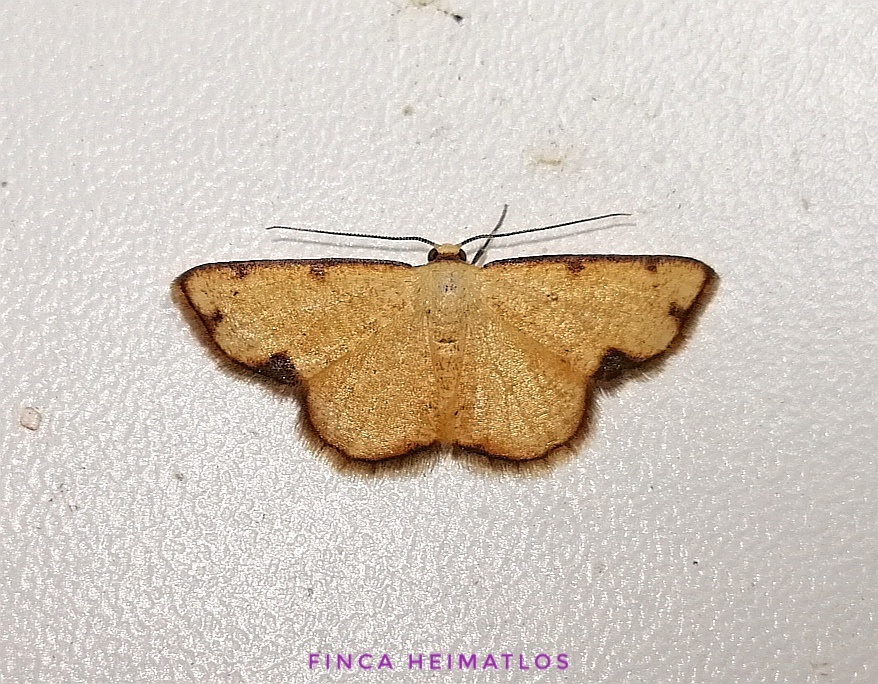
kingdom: Animalia
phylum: Arthropoda
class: Insecta
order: Lepidoptera
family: Geometridae
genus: Nematocampa
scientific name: Nematocampa confusa
